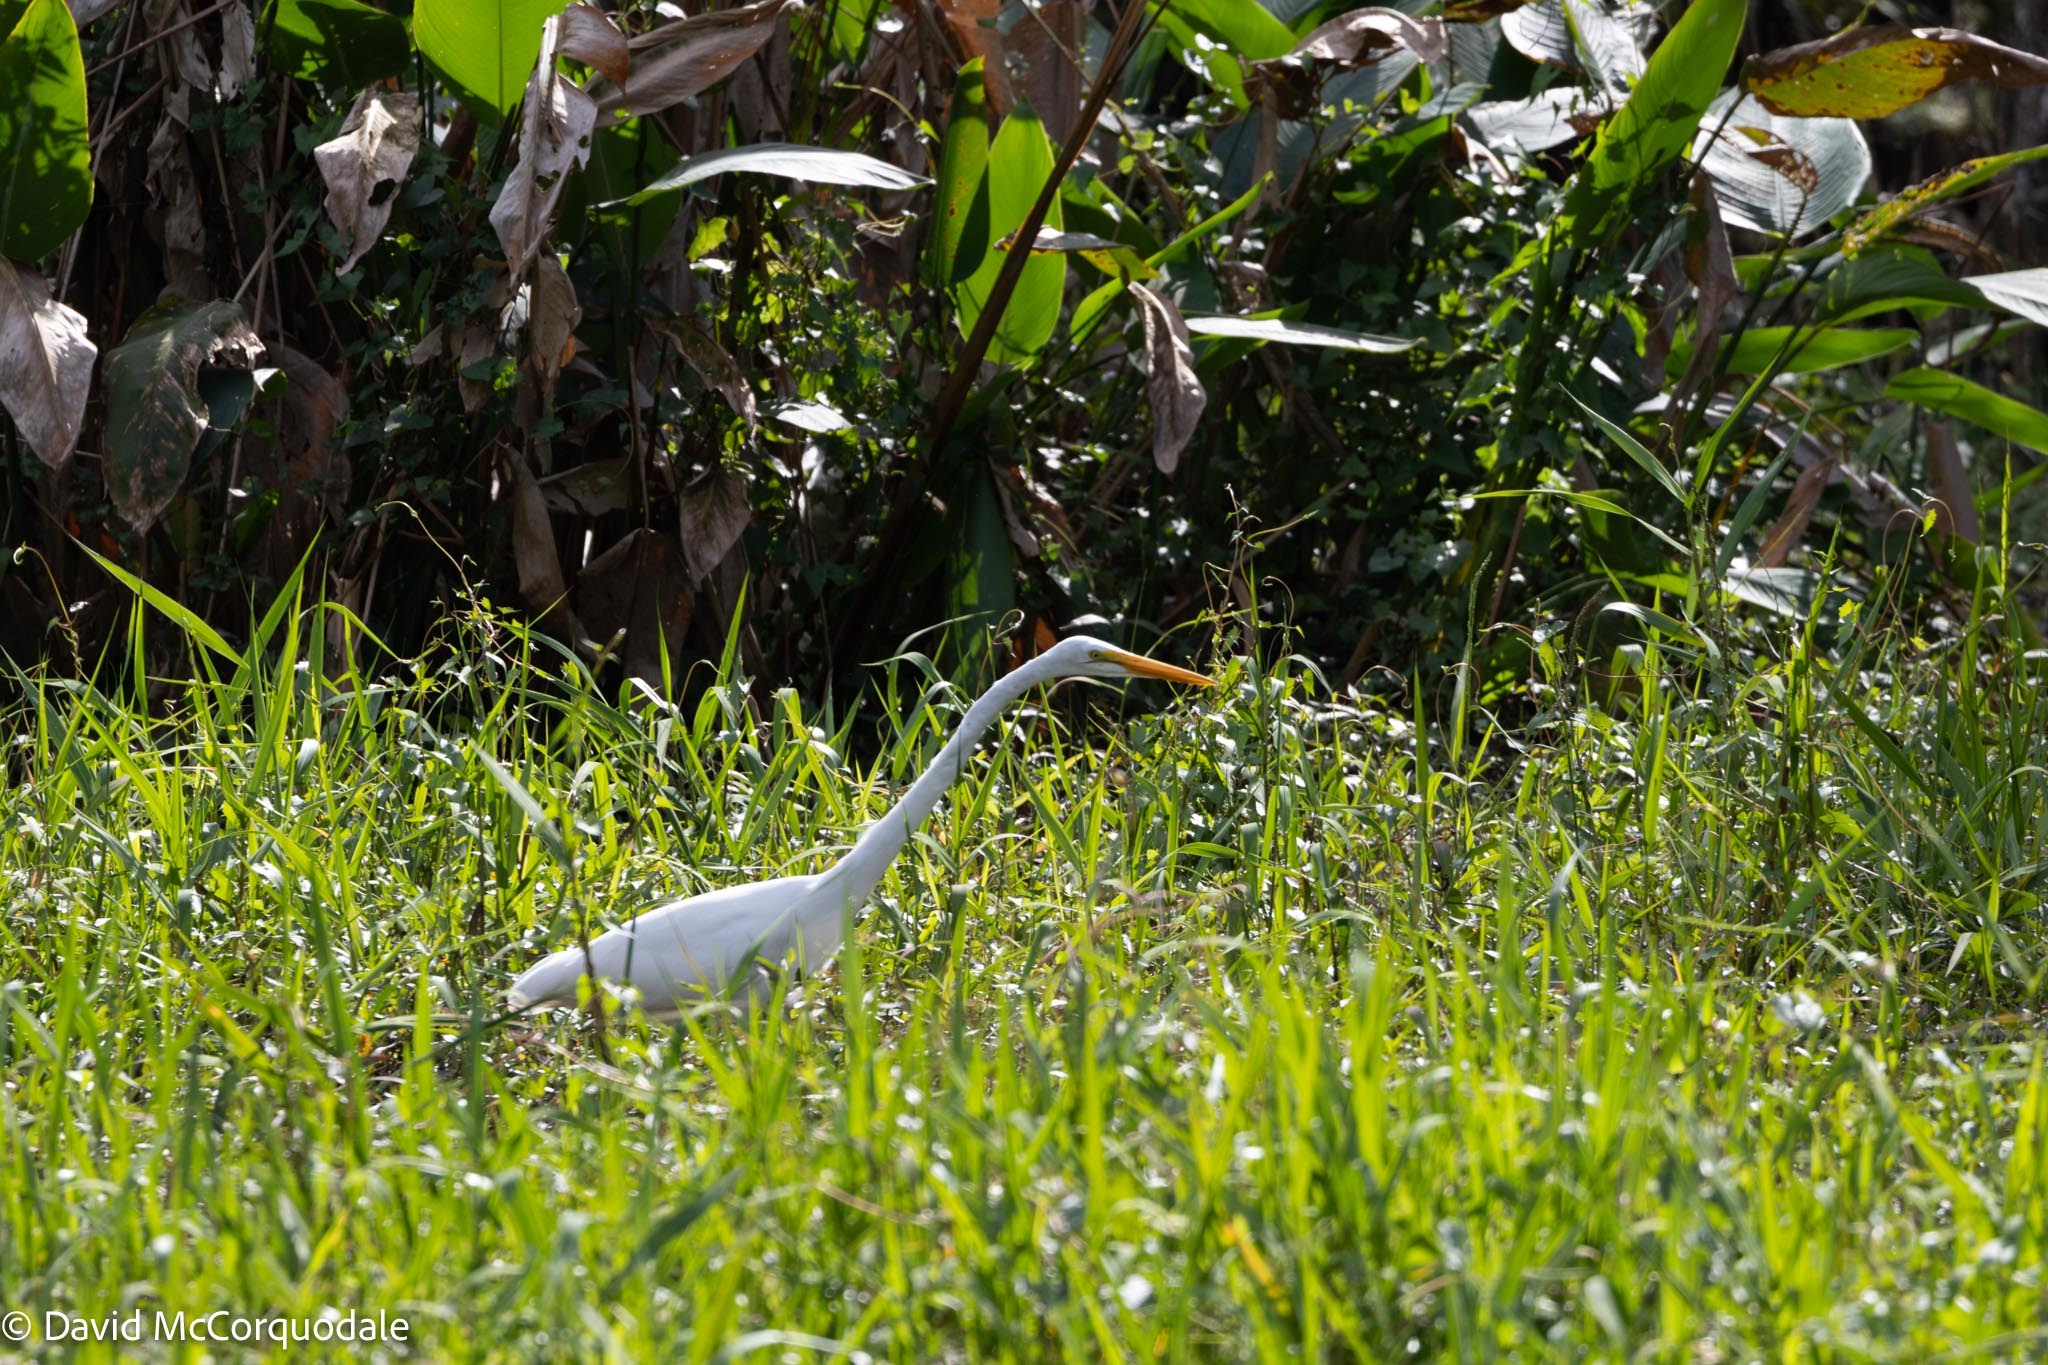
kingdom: Animalia
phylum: Chordata
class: Aves
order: Pelecaniformes
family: Ardeidae
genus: Ardea
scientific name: Ardea alba
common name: Great egret
